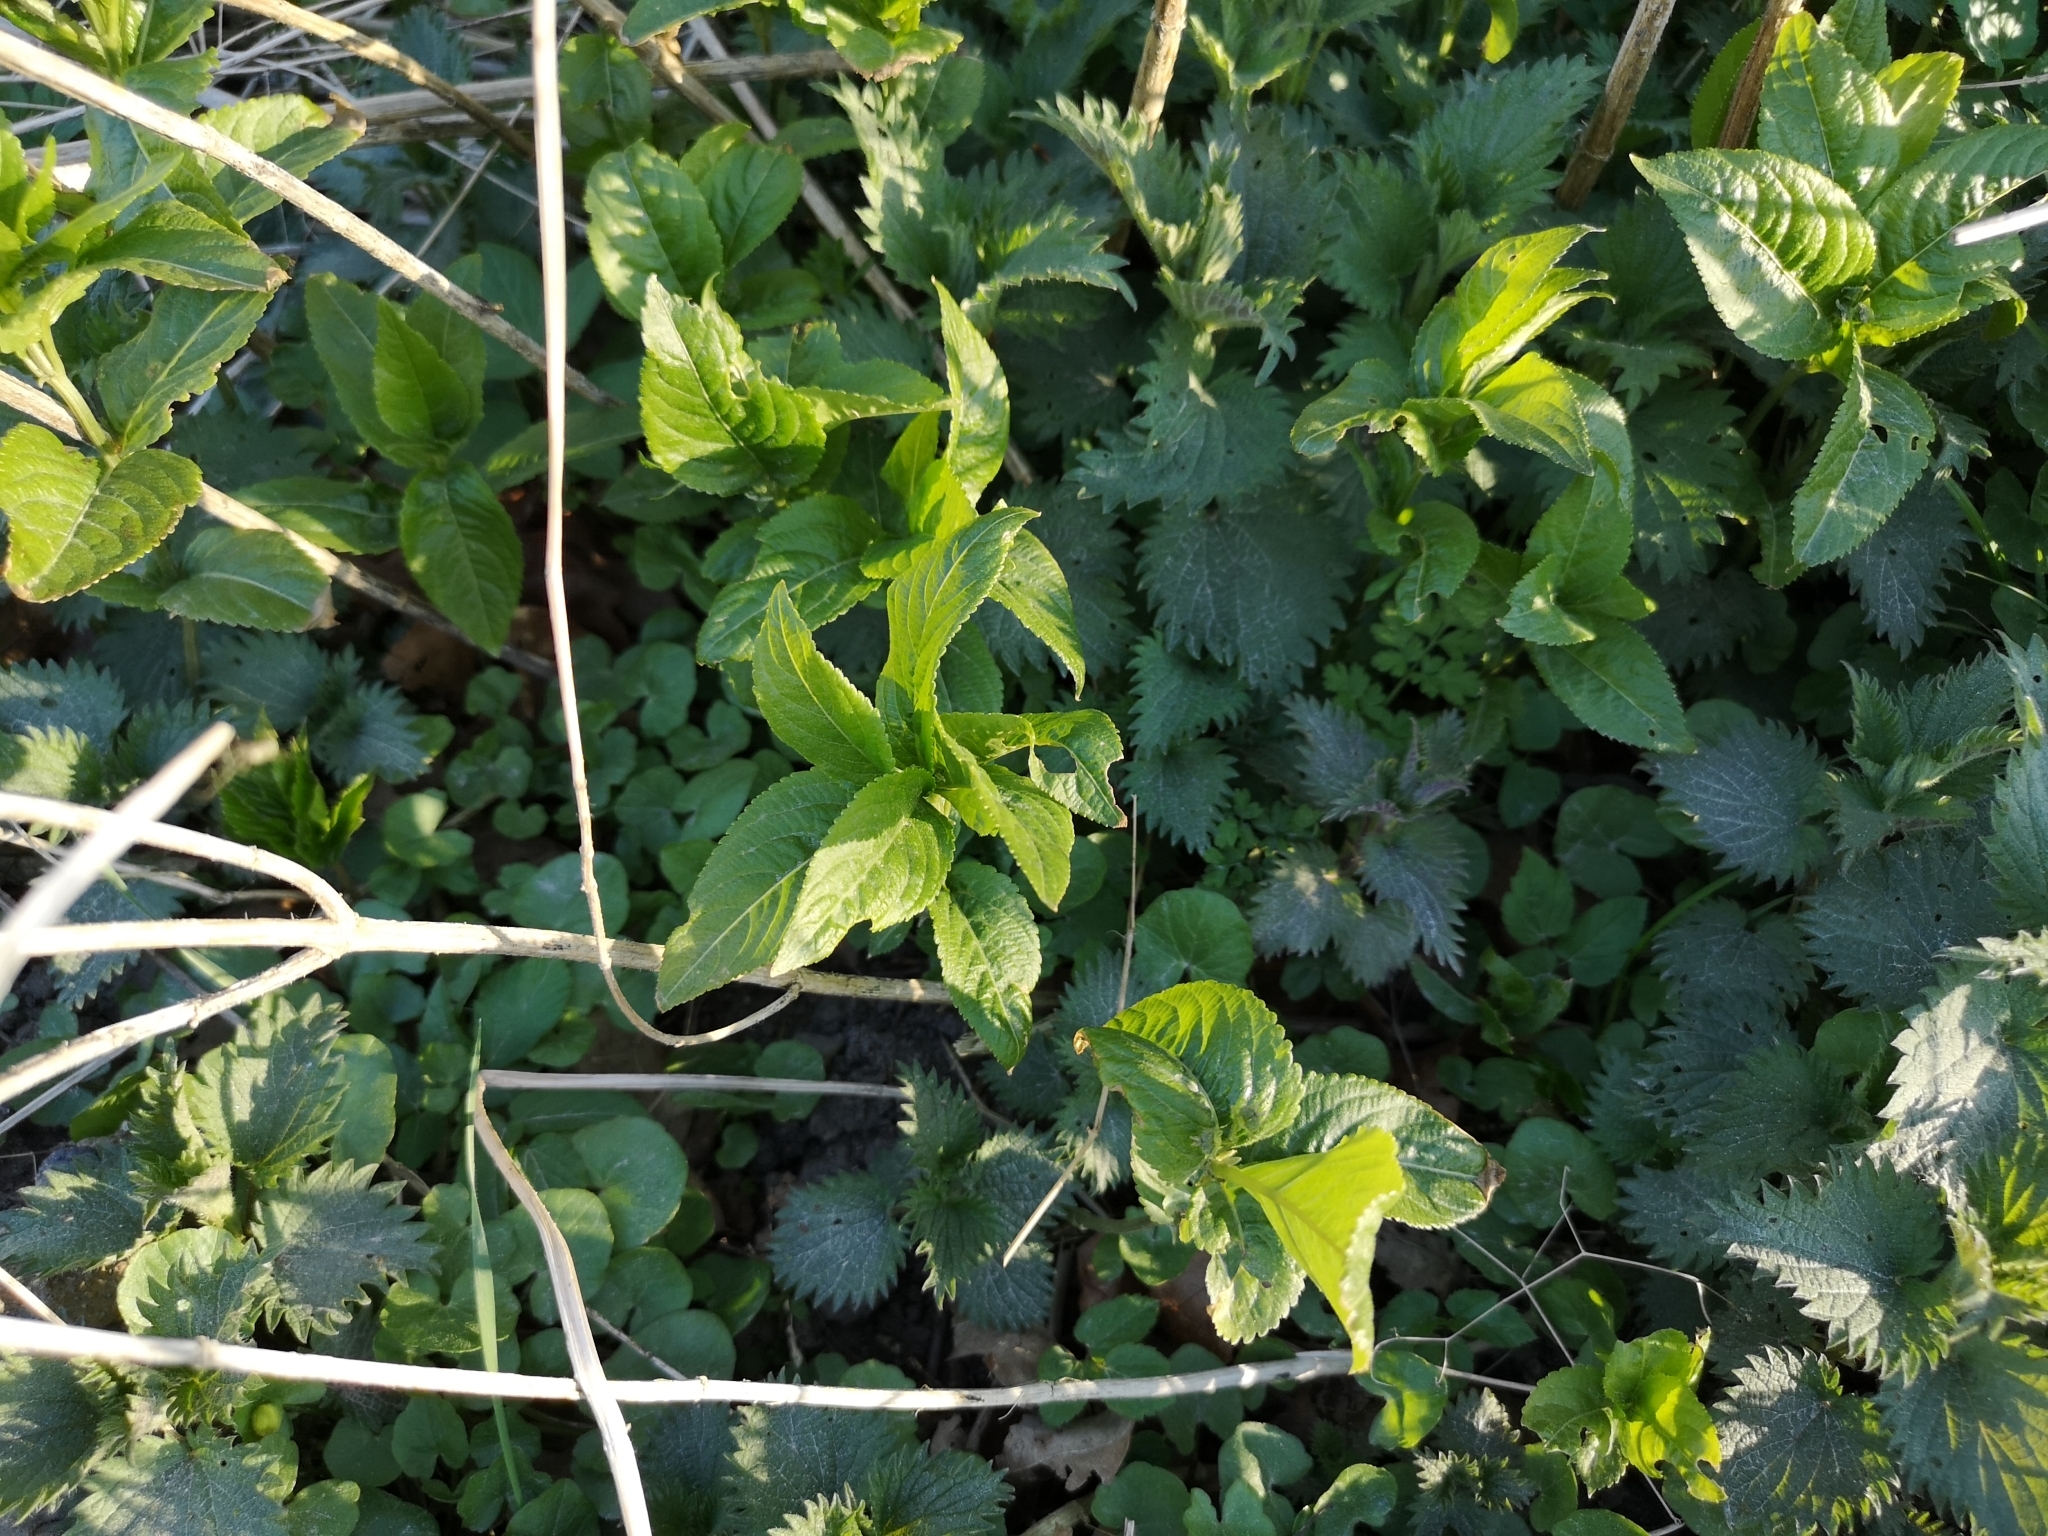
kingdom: Plantae
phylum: Tracheophyta
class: Magnoliopsida
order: Malpighiales
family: Euphorbiaceae
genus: Mercurialis
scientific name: Mercurialis perennis
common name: Dog mercury
